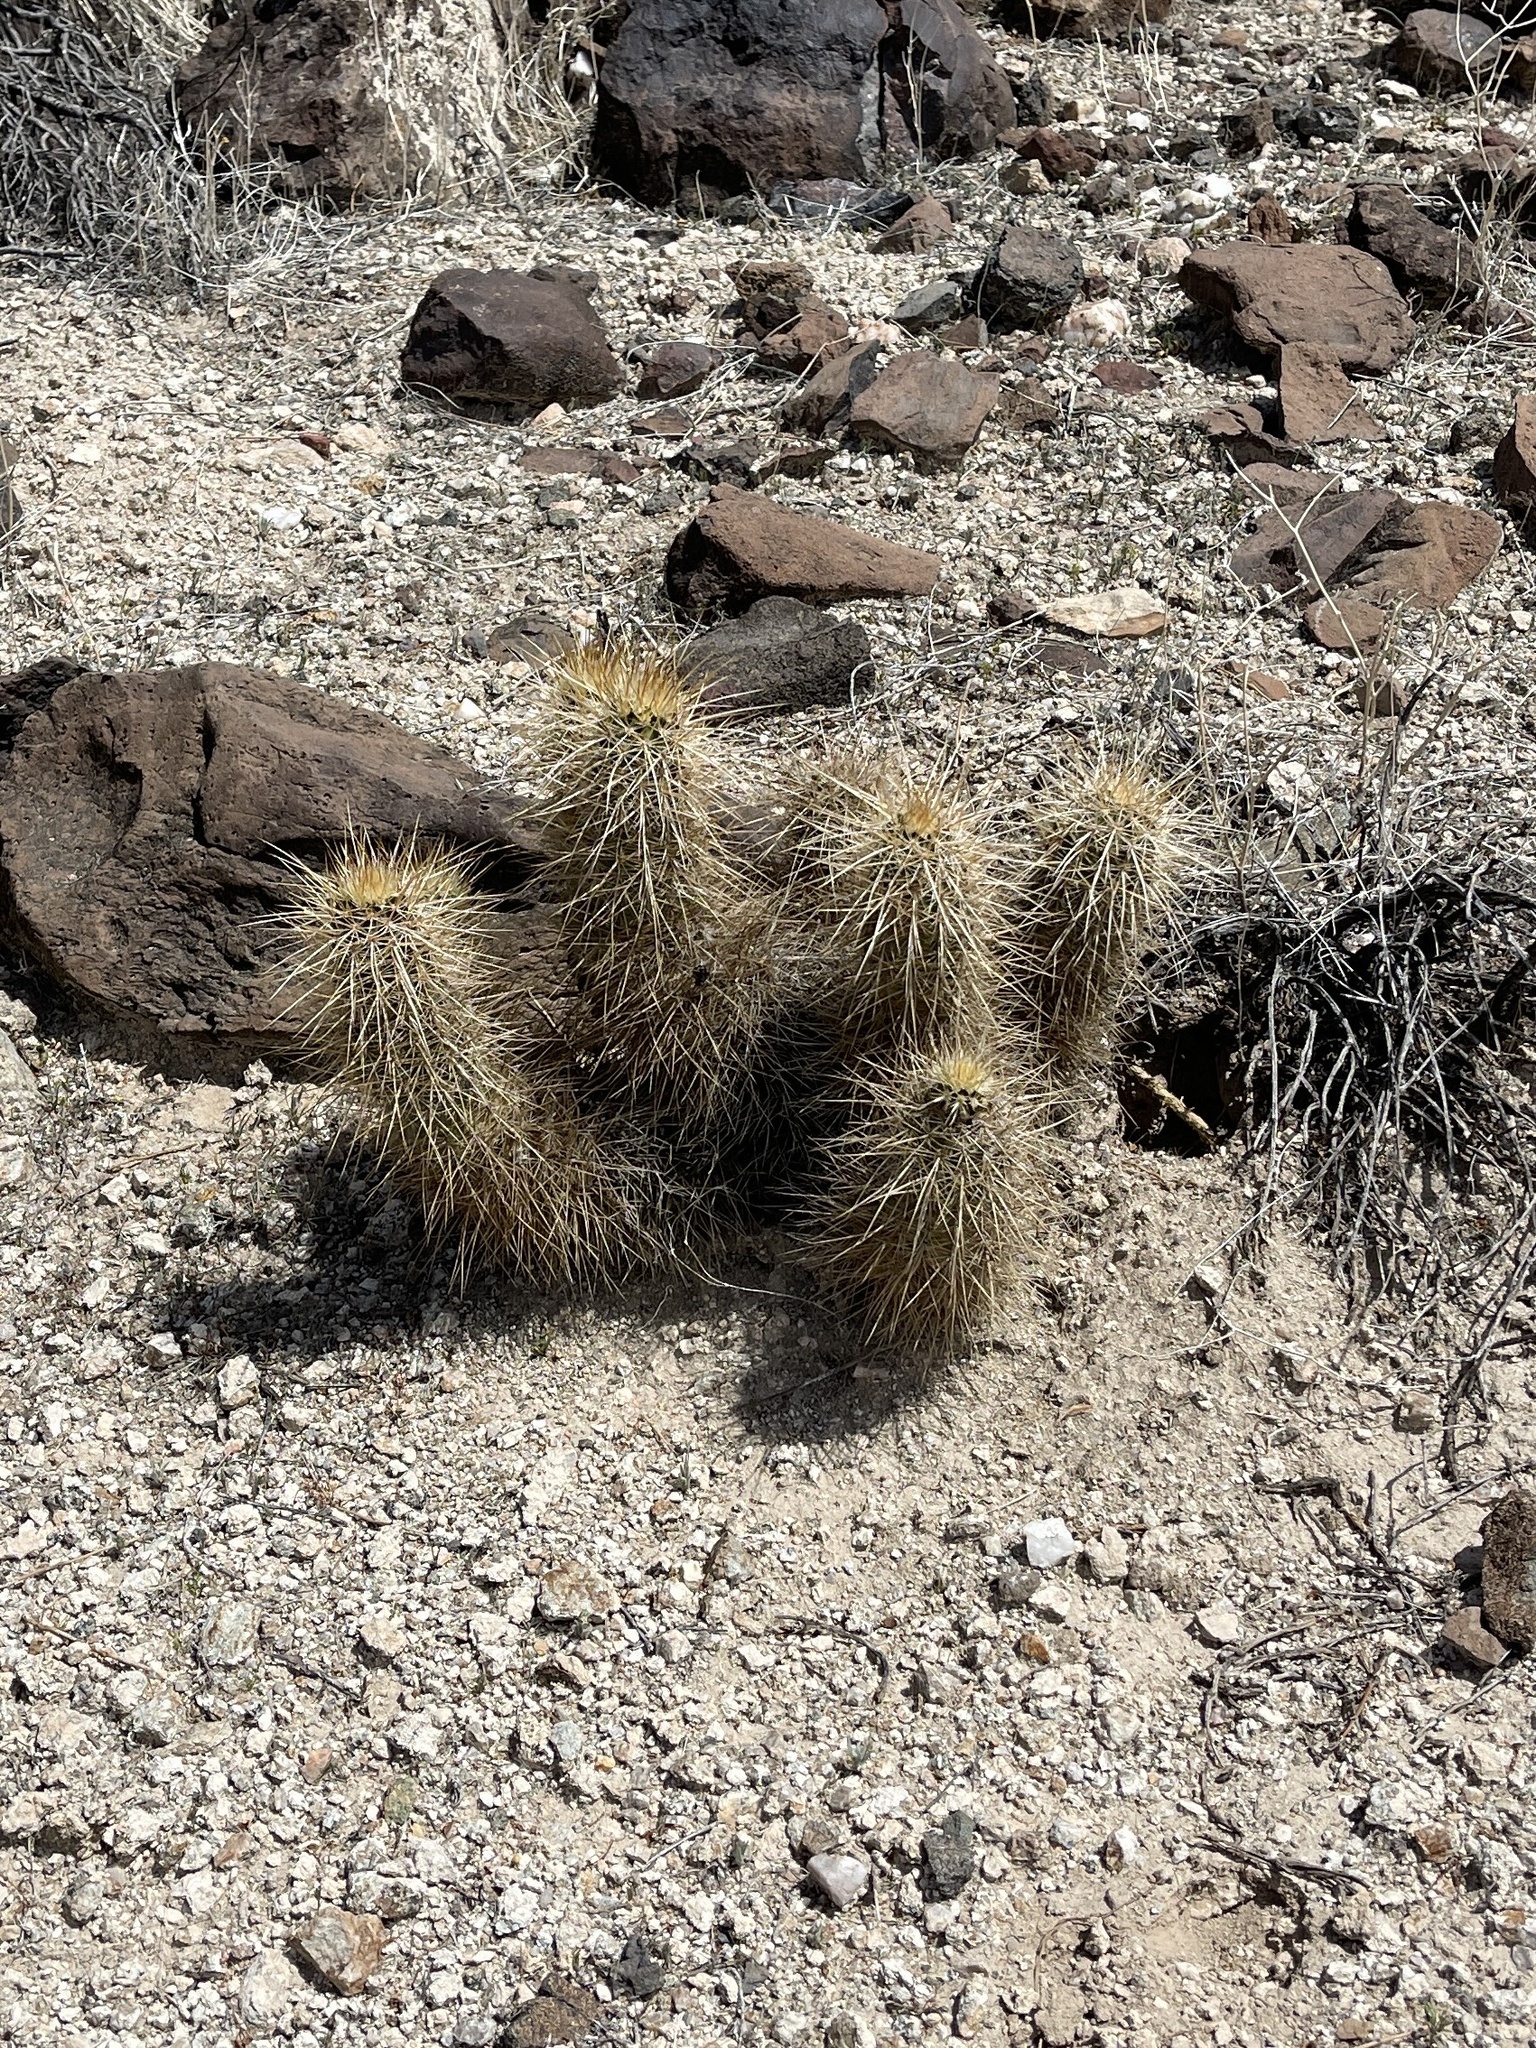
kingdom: Plantae
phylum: Tracheophyta
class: Magnoliopsida
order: Caryophyllales
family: Cactaceae
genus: Echinocereus
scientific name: Echinocereus engelmannii
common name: Engelmann's hedgehog cactus
